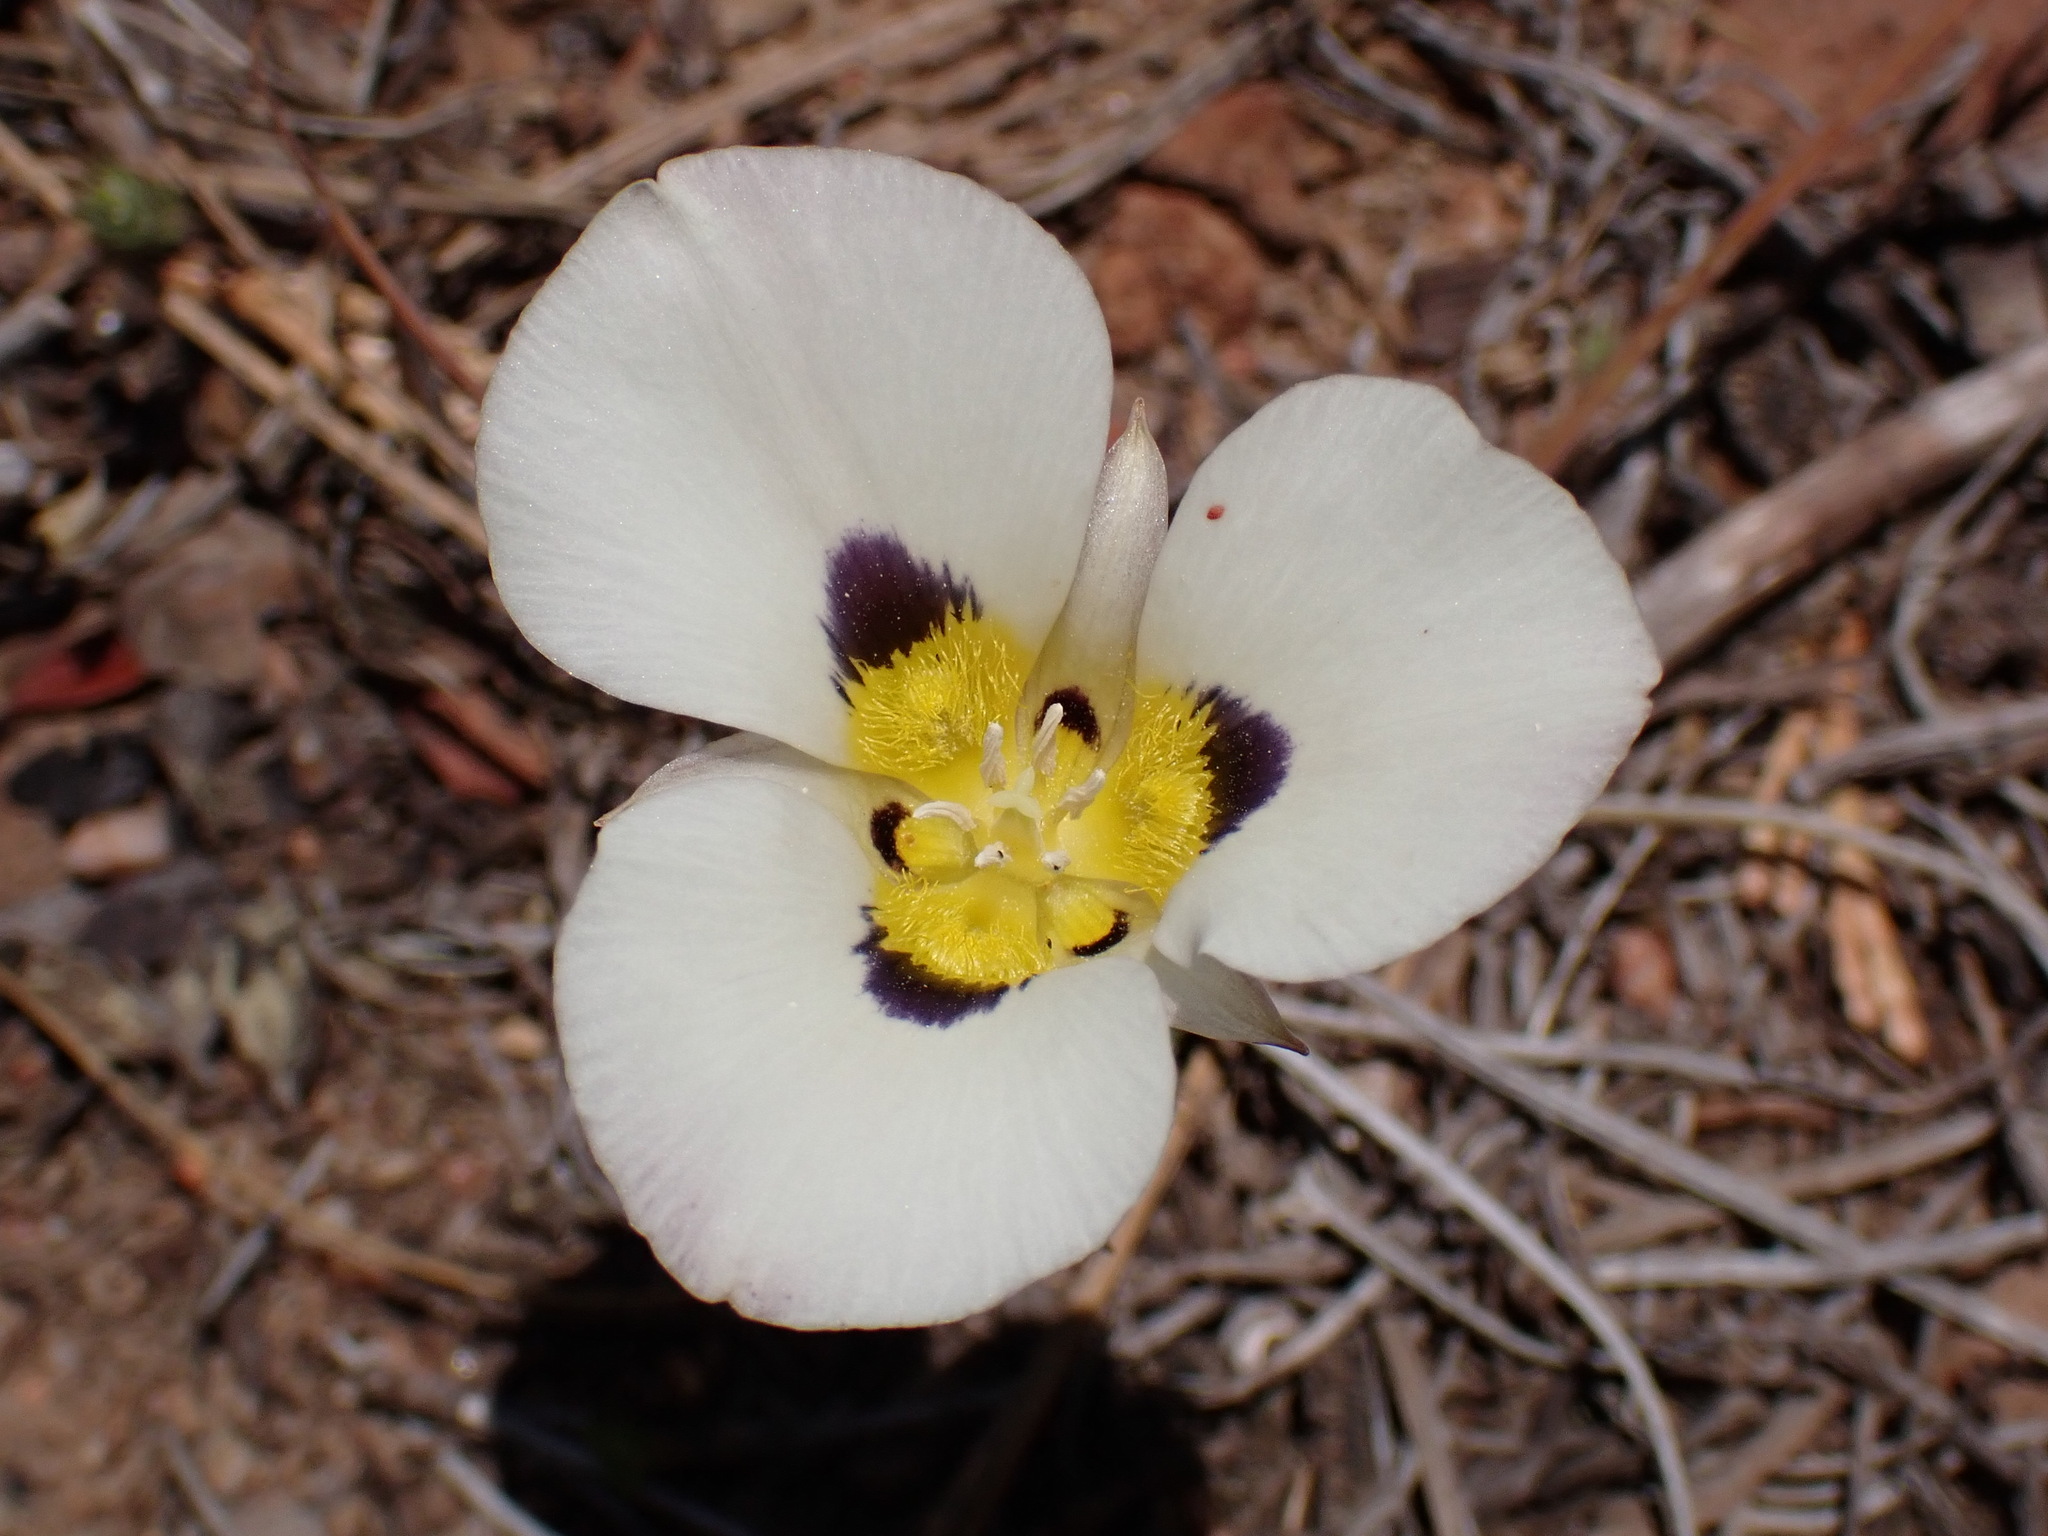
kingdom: Plantae
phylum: Tracheophyta
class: Liliopsida
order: Liliales
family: Liliaceae
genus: Calochortus
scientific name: Calochortus leichtlinii
